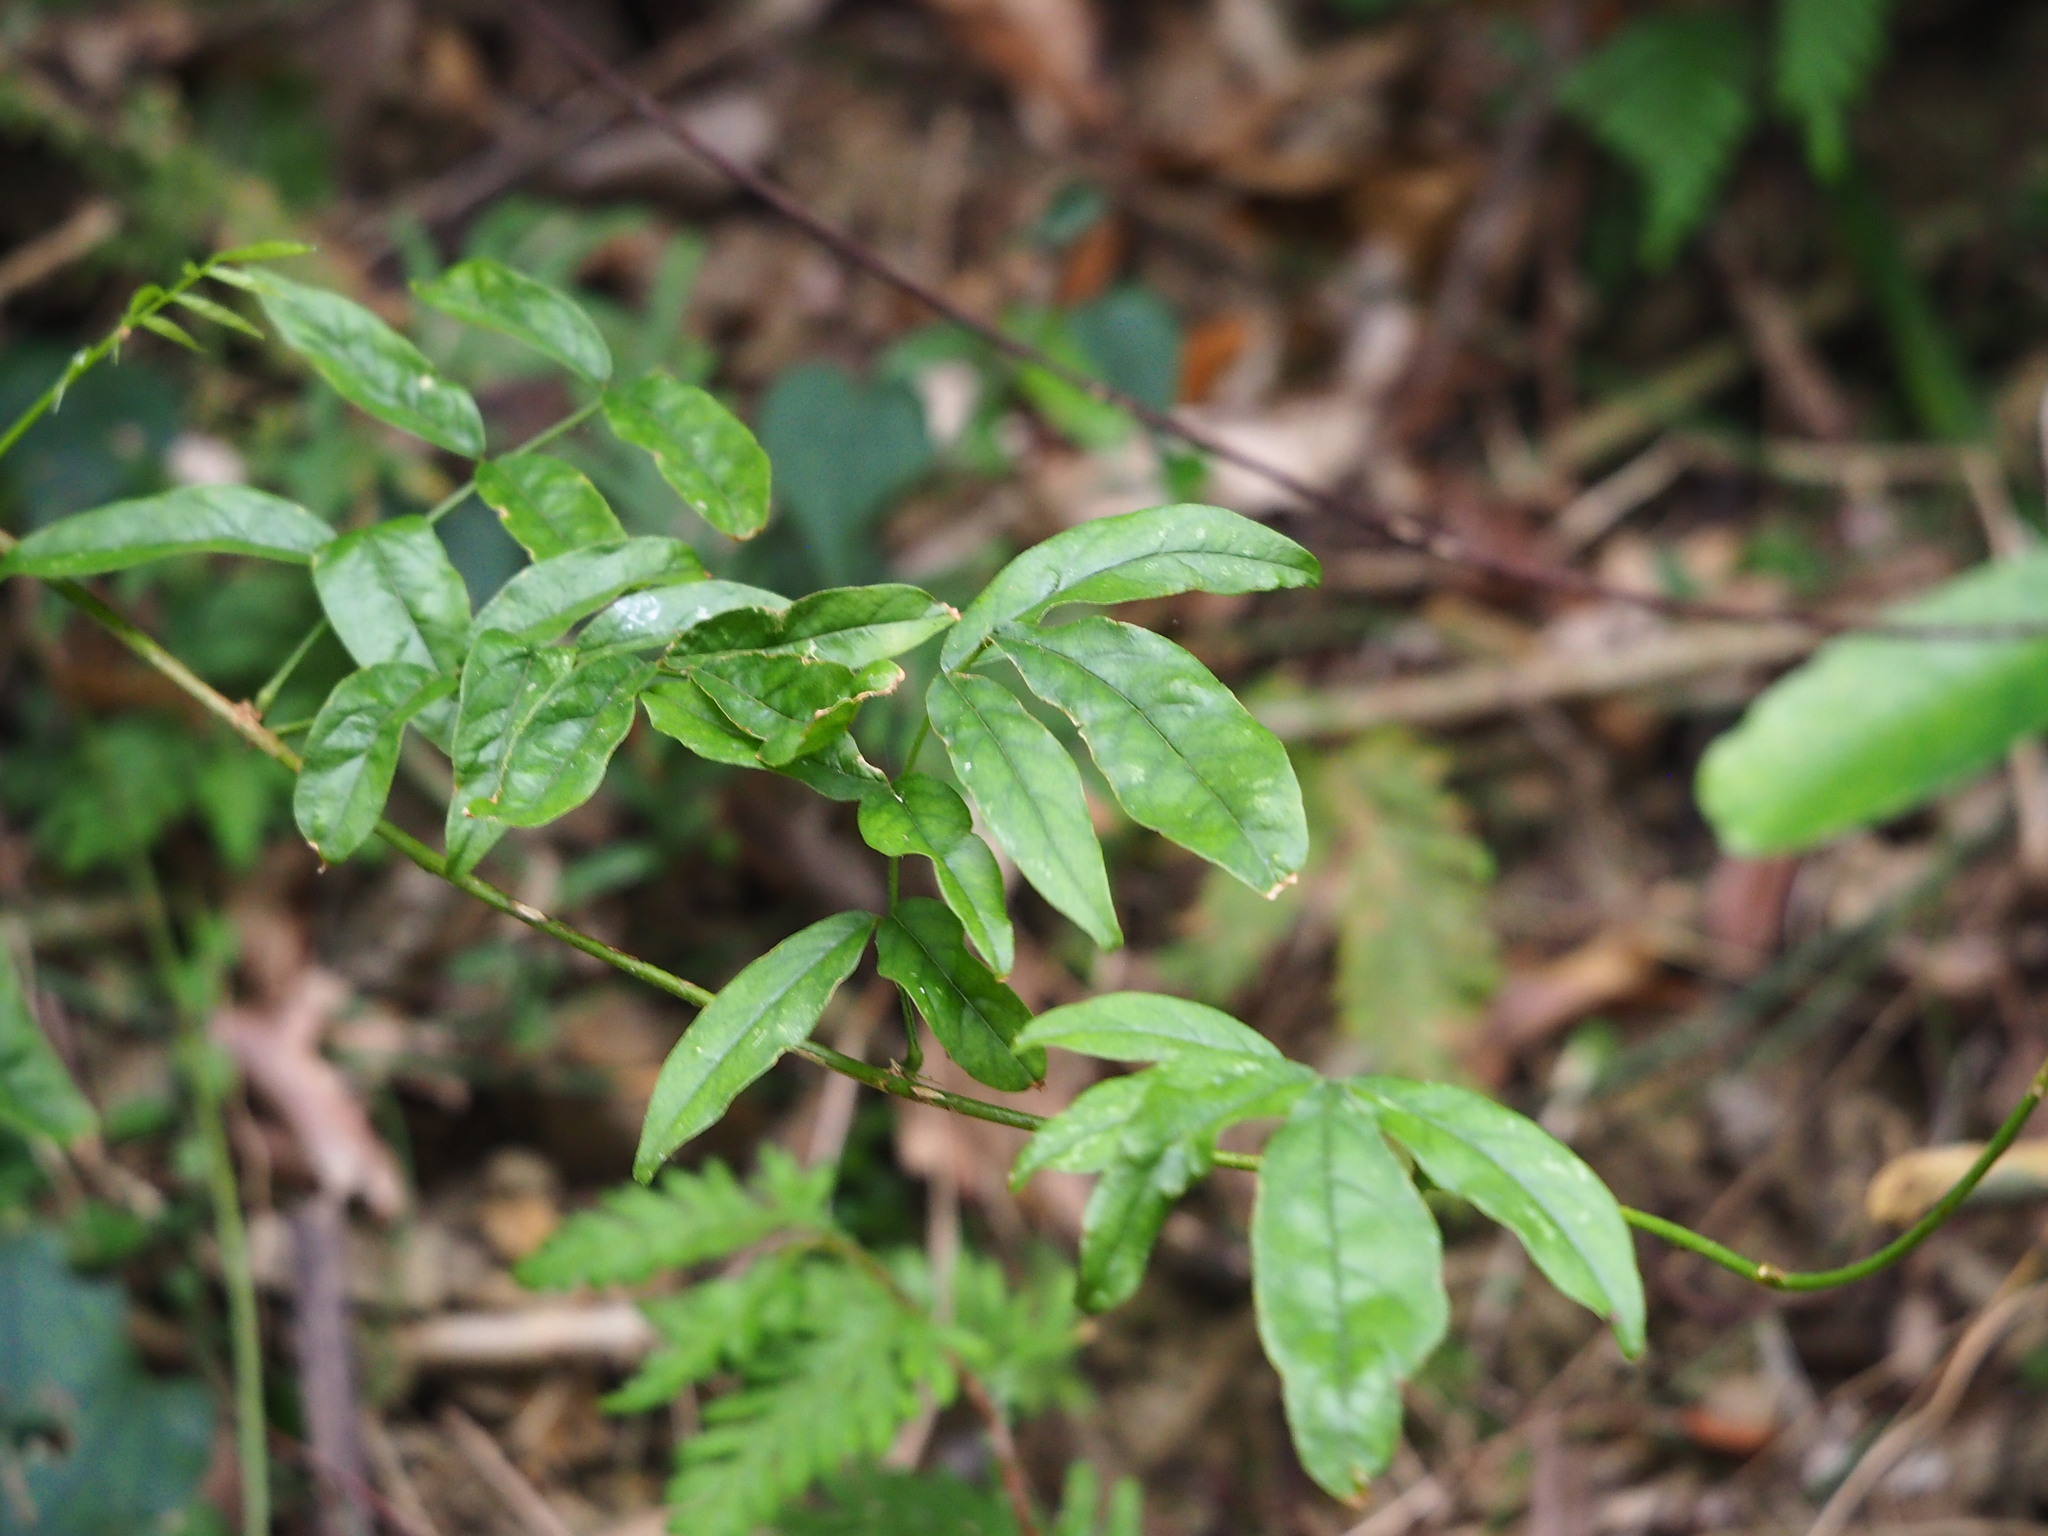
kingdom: Plantae
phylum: Tracheophyta
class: Magnoliopsida
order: Fabales
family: Fabaceae
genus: Wisteriopsis
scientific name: Wisteriopsis reticulata
